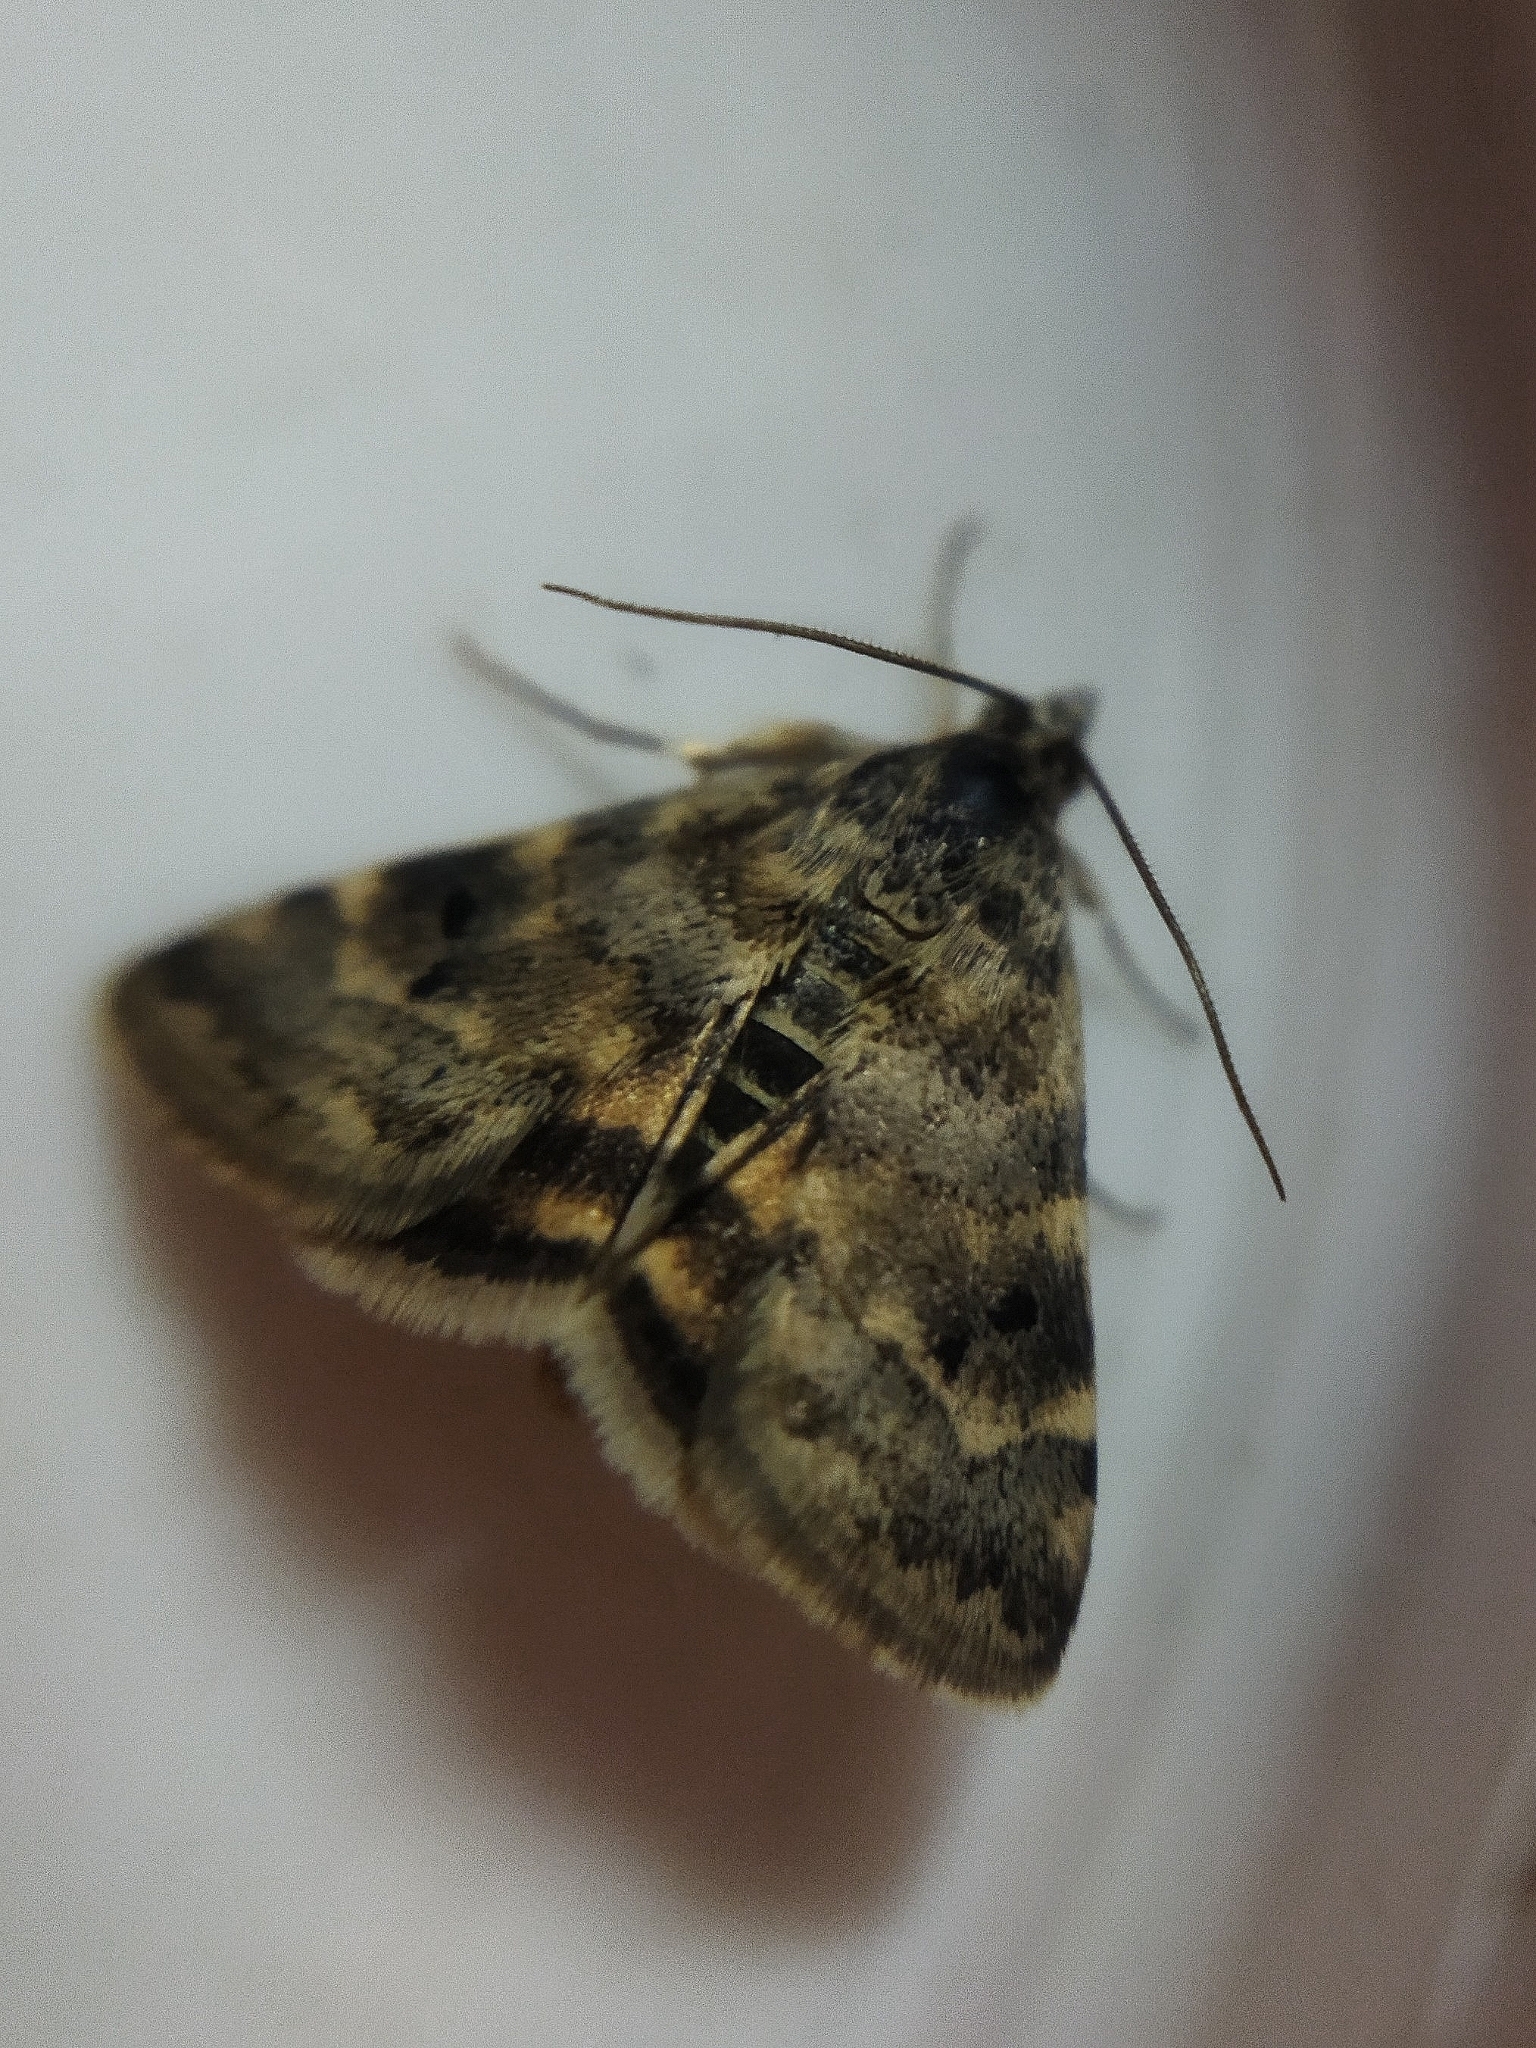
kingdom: Animalia
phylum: Arthropoda
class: Insecta
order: Lepidoptera
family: Crambidae
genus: Noctuelia
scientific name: Noctuelia Aporodes floralis
